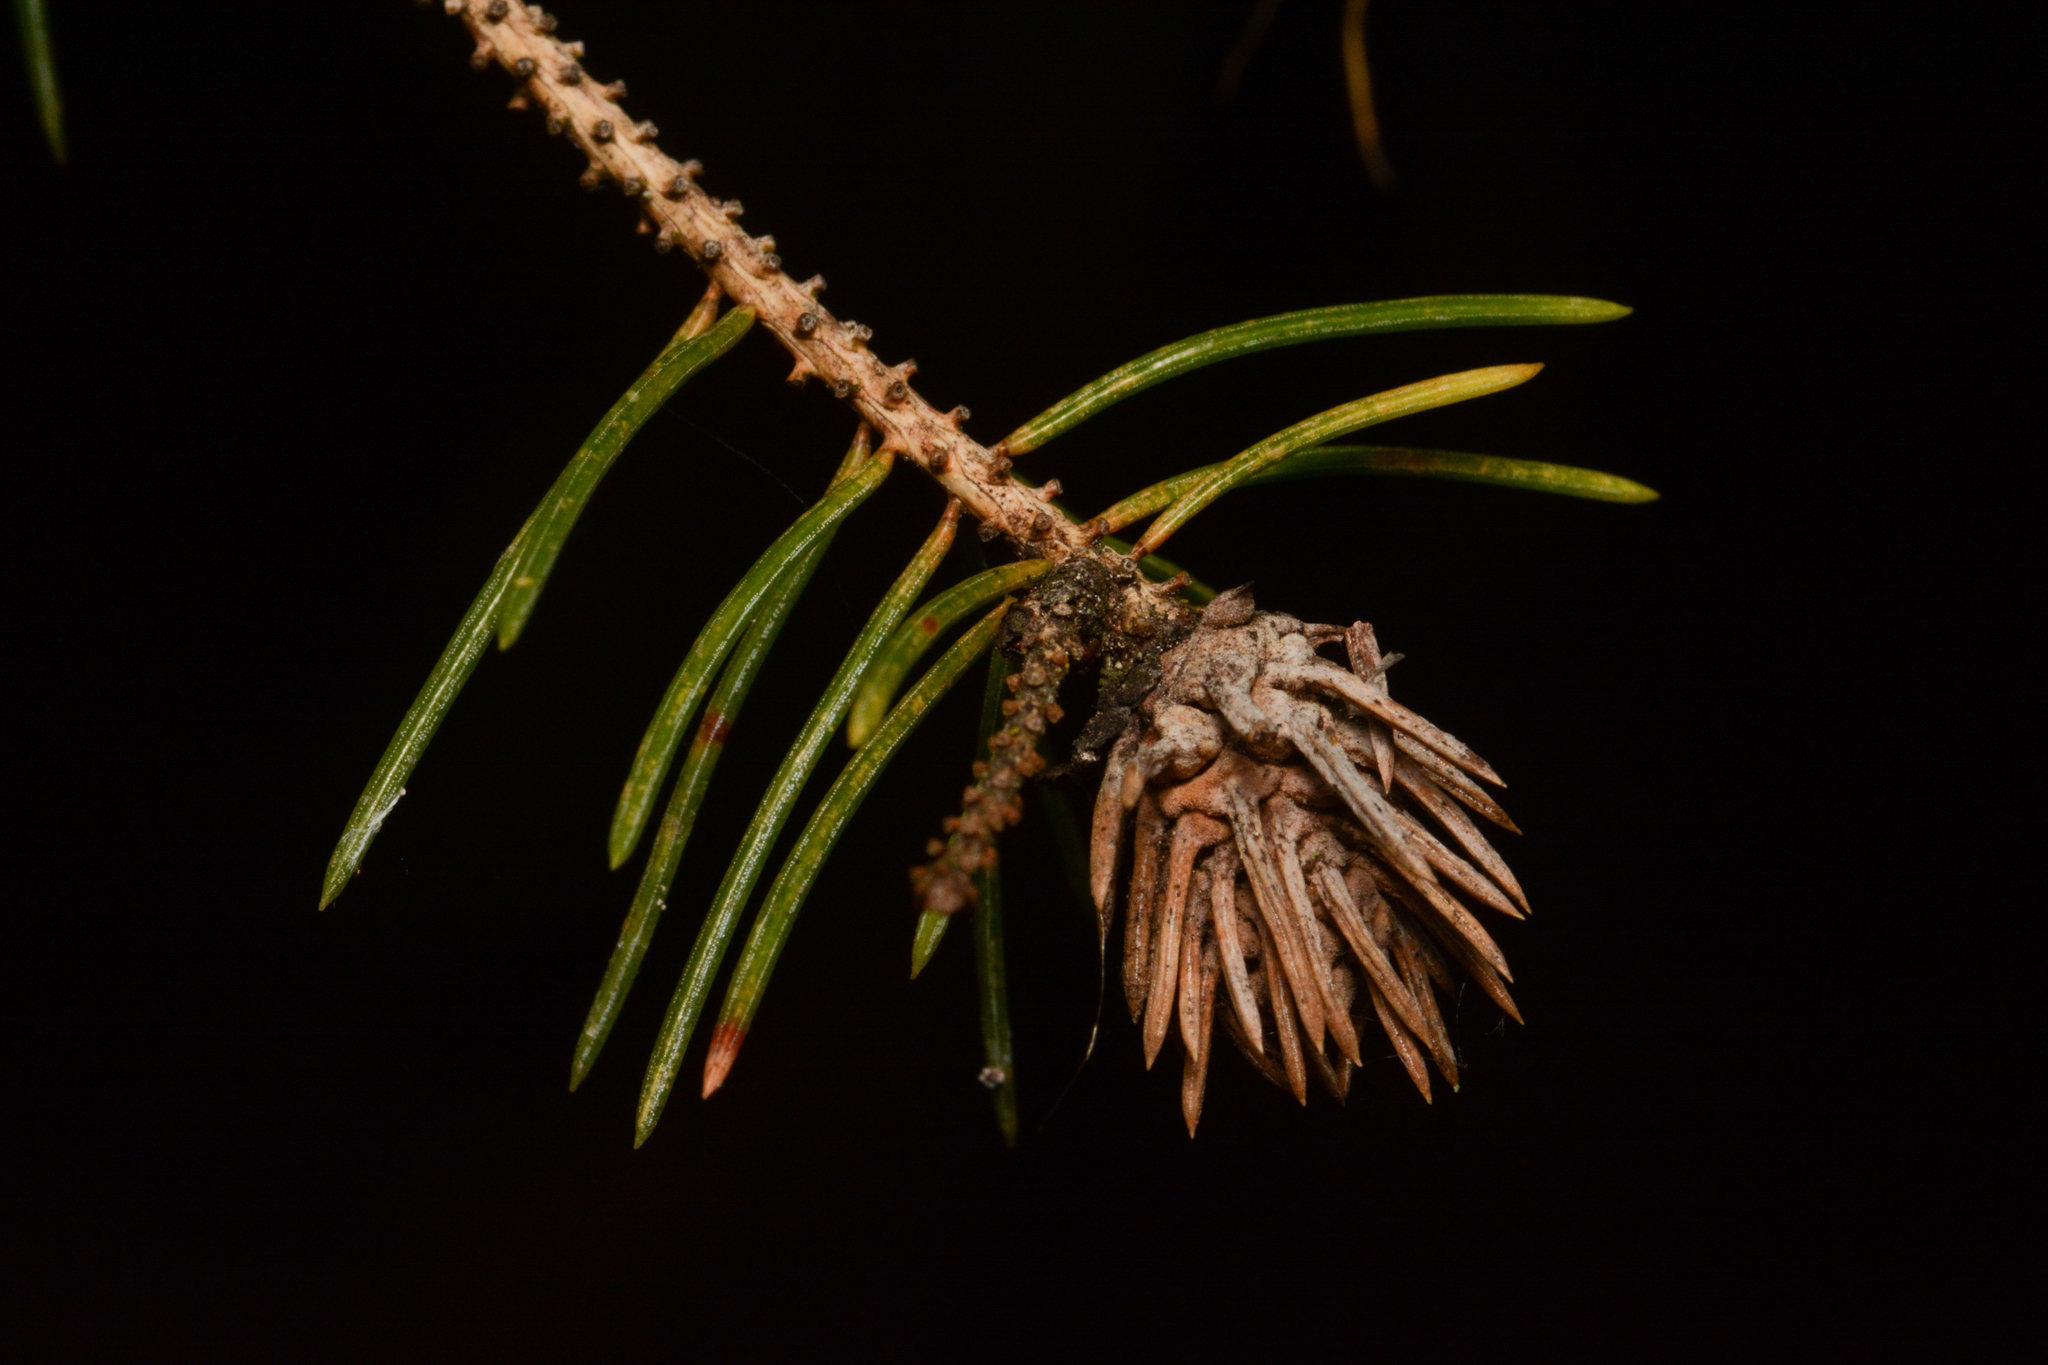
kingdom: Animalia
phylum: Arthropoda
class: Insecta
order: Hemiptera
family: Adelgidae
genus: Adelges
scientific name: Adelges cooleyi
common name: Cooley spruce gall adelgid
